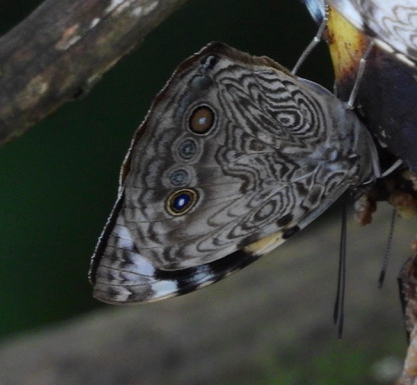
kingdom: Animalia
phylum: Arthropoda
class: Insecta
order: Lepidoptera
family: Nymphalidae
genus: Smyrna
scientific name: Smyrna karwinskii
